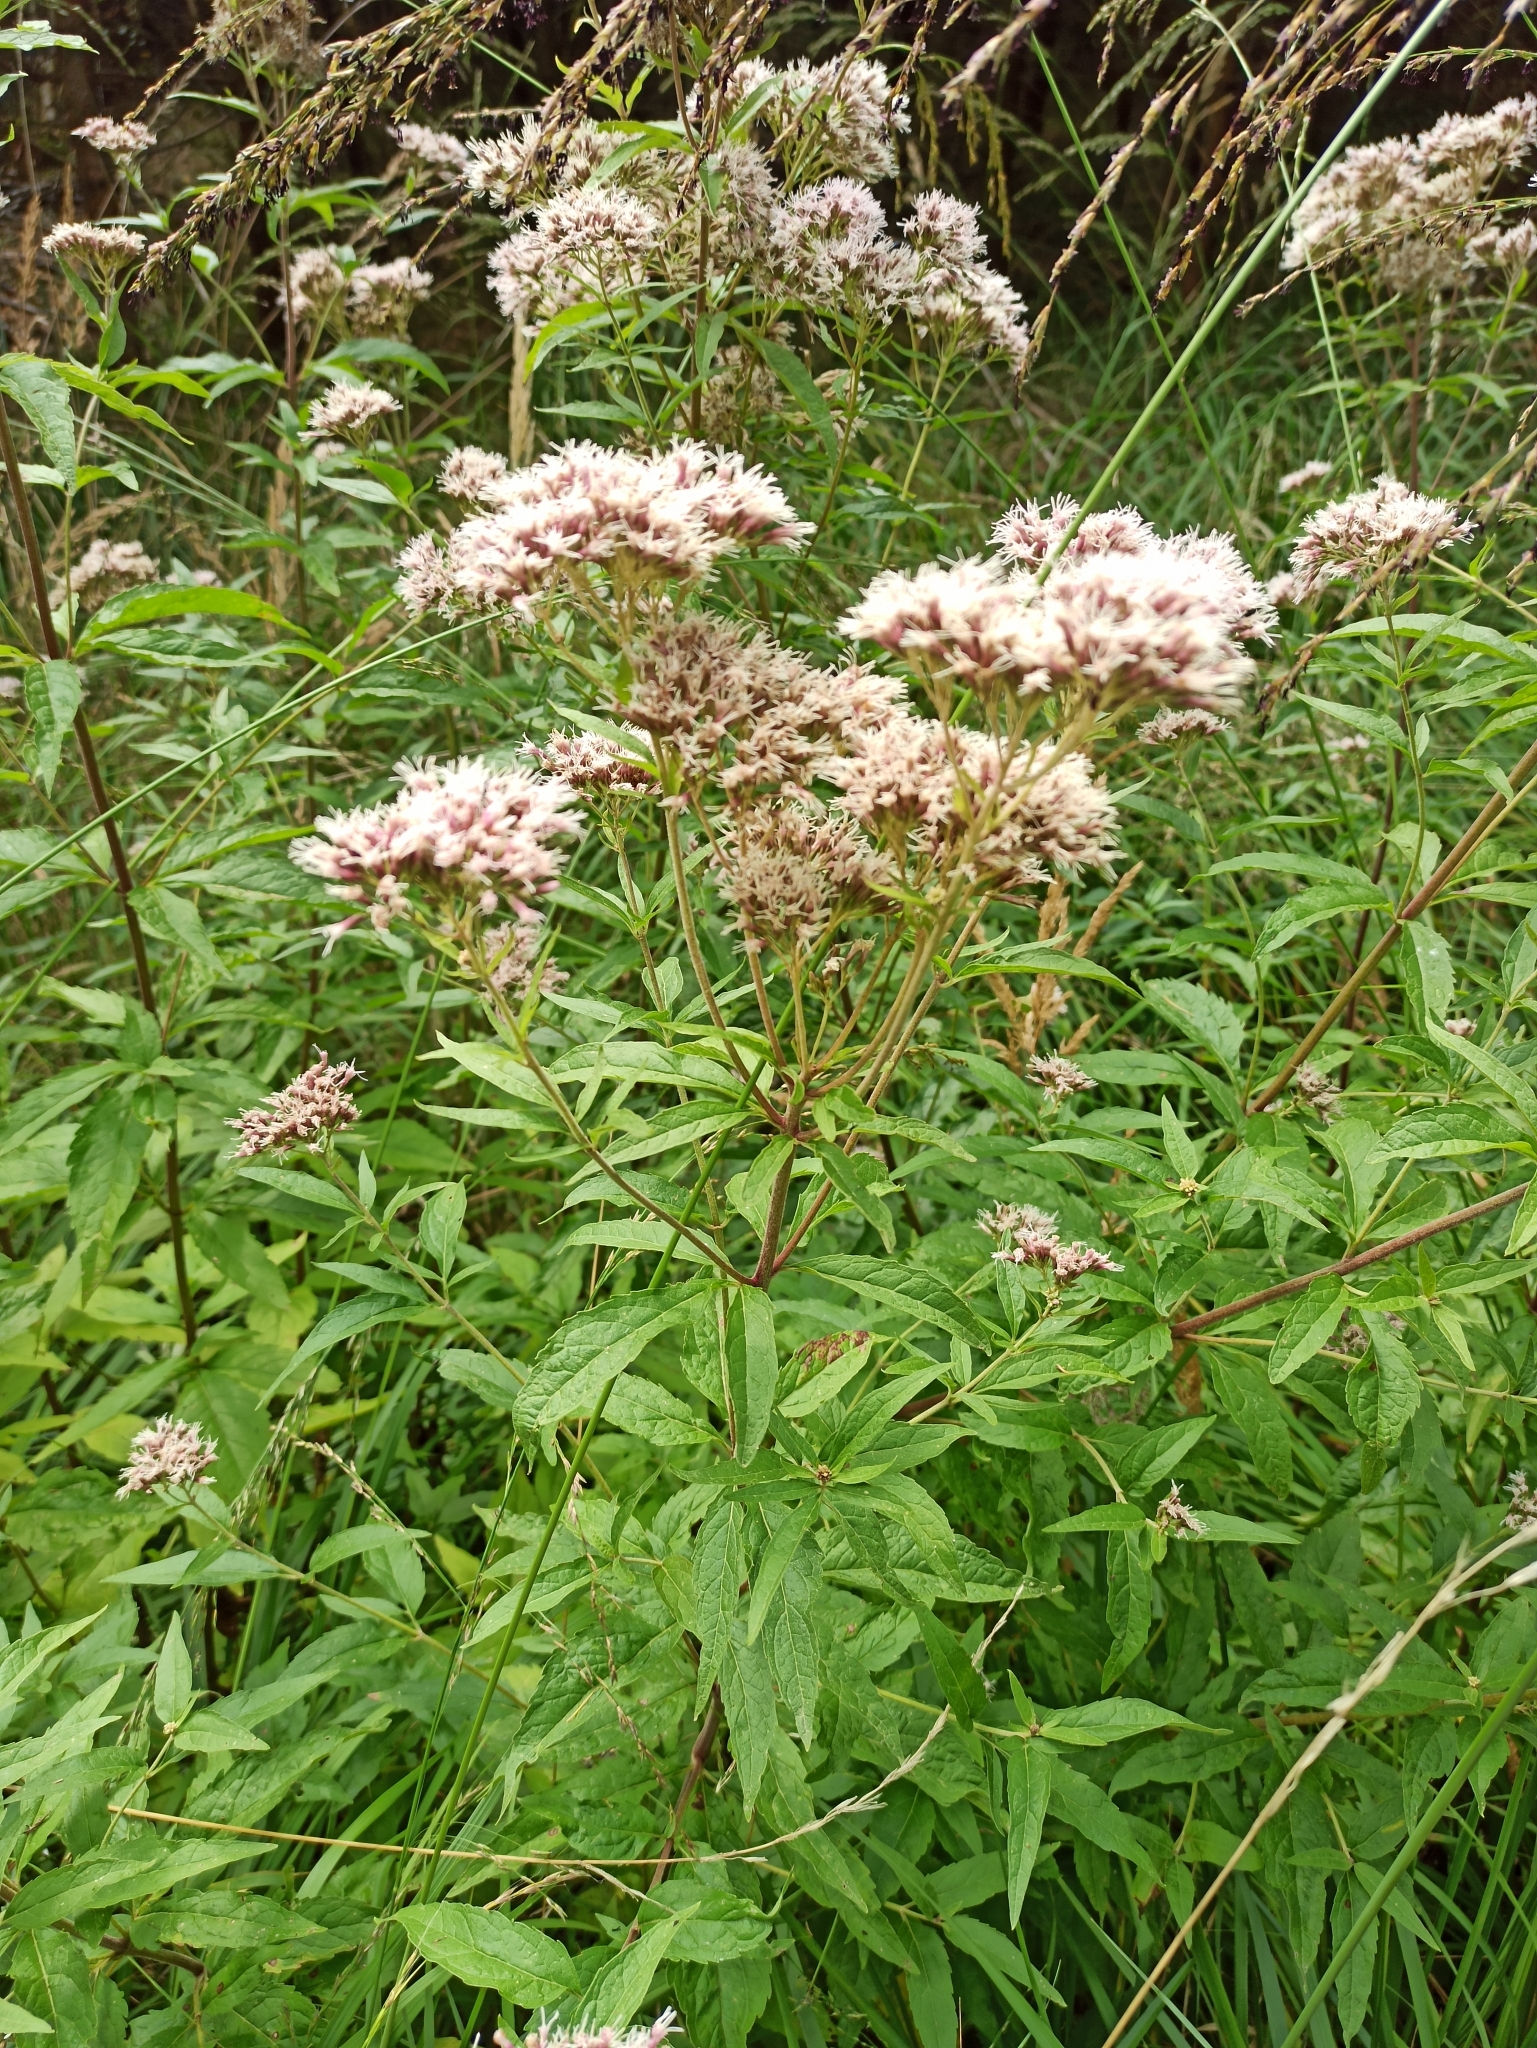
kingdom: Plantae
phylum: Tracheophyta
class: Magnoliopsida
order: Asterales
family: Asteraceae
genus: Eupatorium
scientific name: Eupatorium cannabinum
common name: Hemp-agrimony
